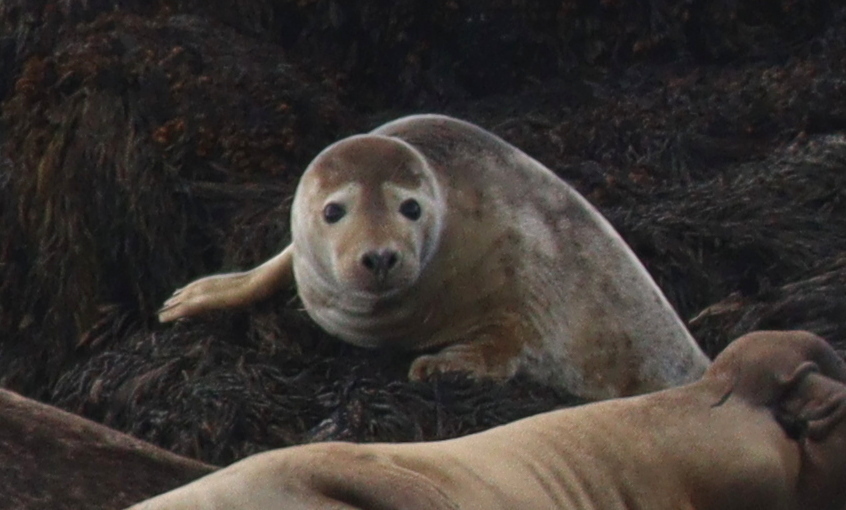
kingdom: Animalia
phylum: Chordata
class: Mammalia
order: Carnivora
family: Phocidae
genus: Halichoerus
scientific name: Halichoerus grypus
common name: Grey seal
